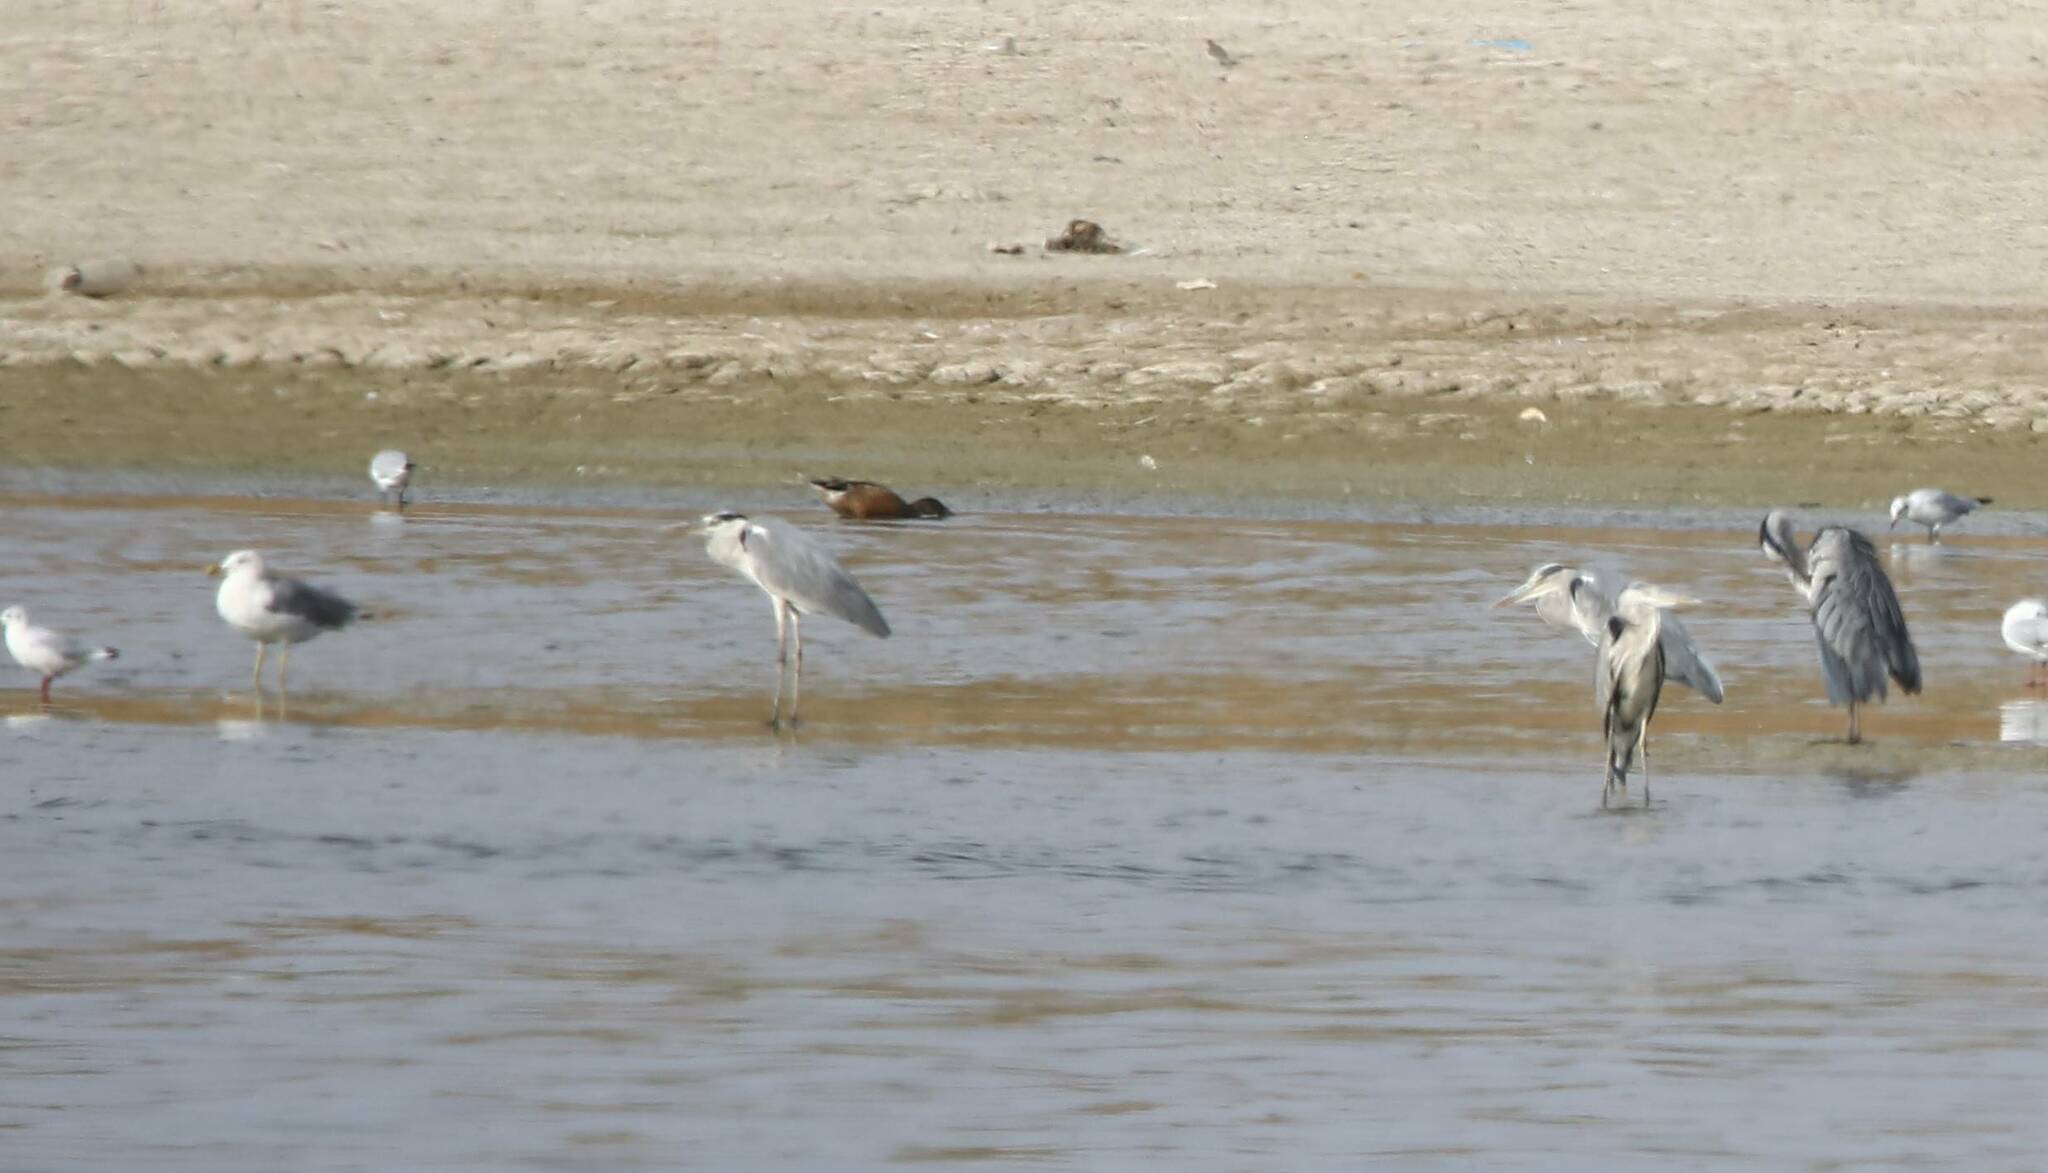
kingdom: Animalia
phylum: Chordata
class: Aves
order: Pelecaniformes
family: Ardeidae
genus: Ardea
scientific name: Ardea cinerea
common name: Grey heron
